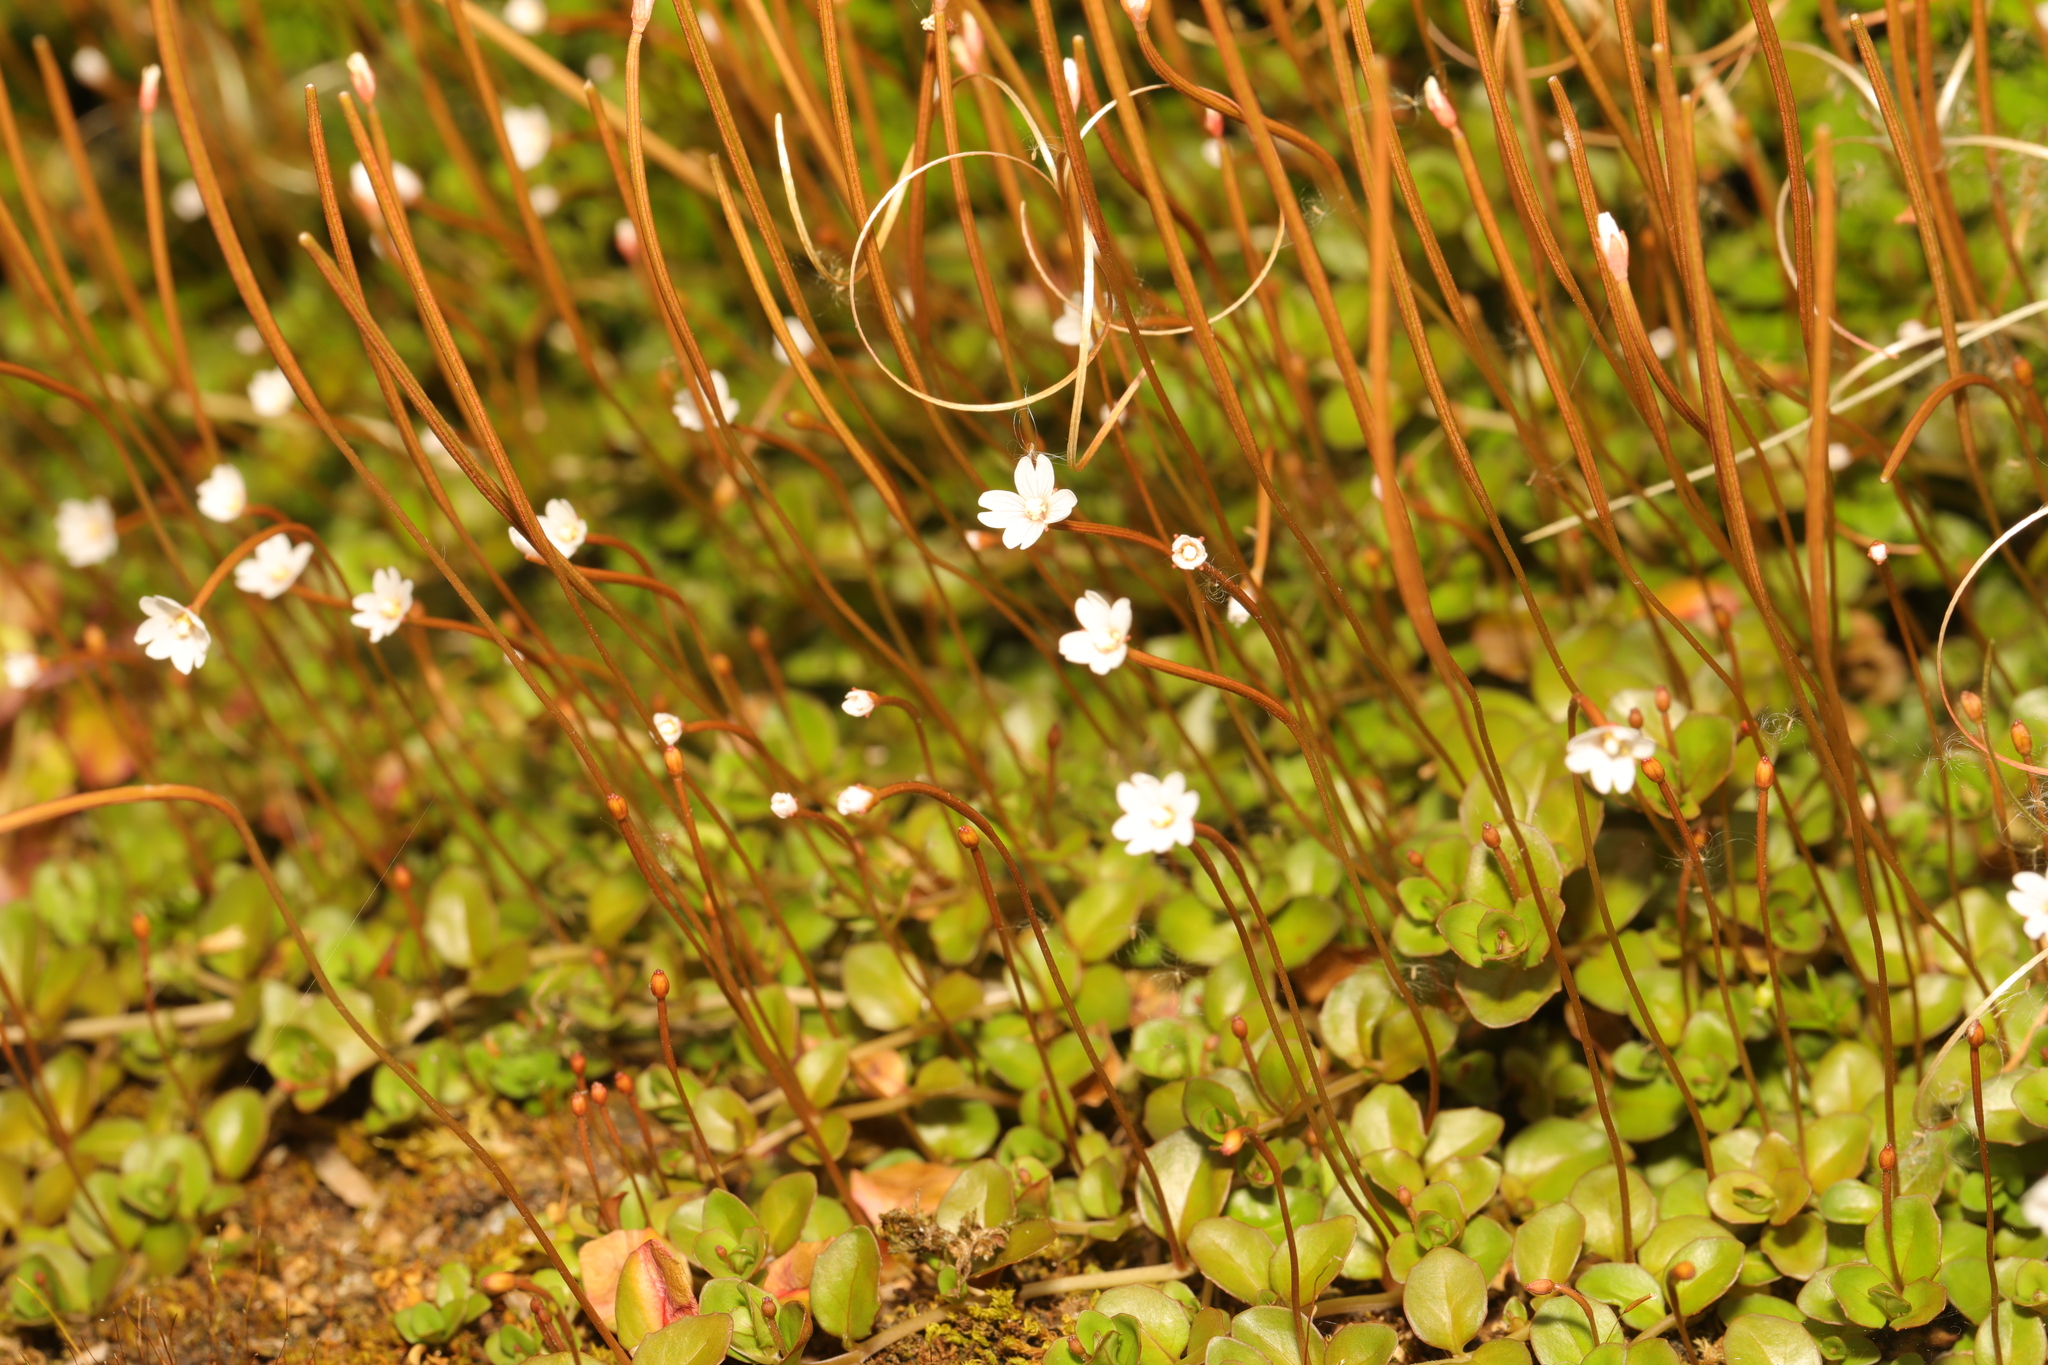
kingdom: Plantae
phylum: Tracheophyta
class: Magnoliopsida
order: Myrtales
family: Onagraceae
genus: Epilobium
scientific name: Epilobium brunnescens
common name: New zealand willowherb
